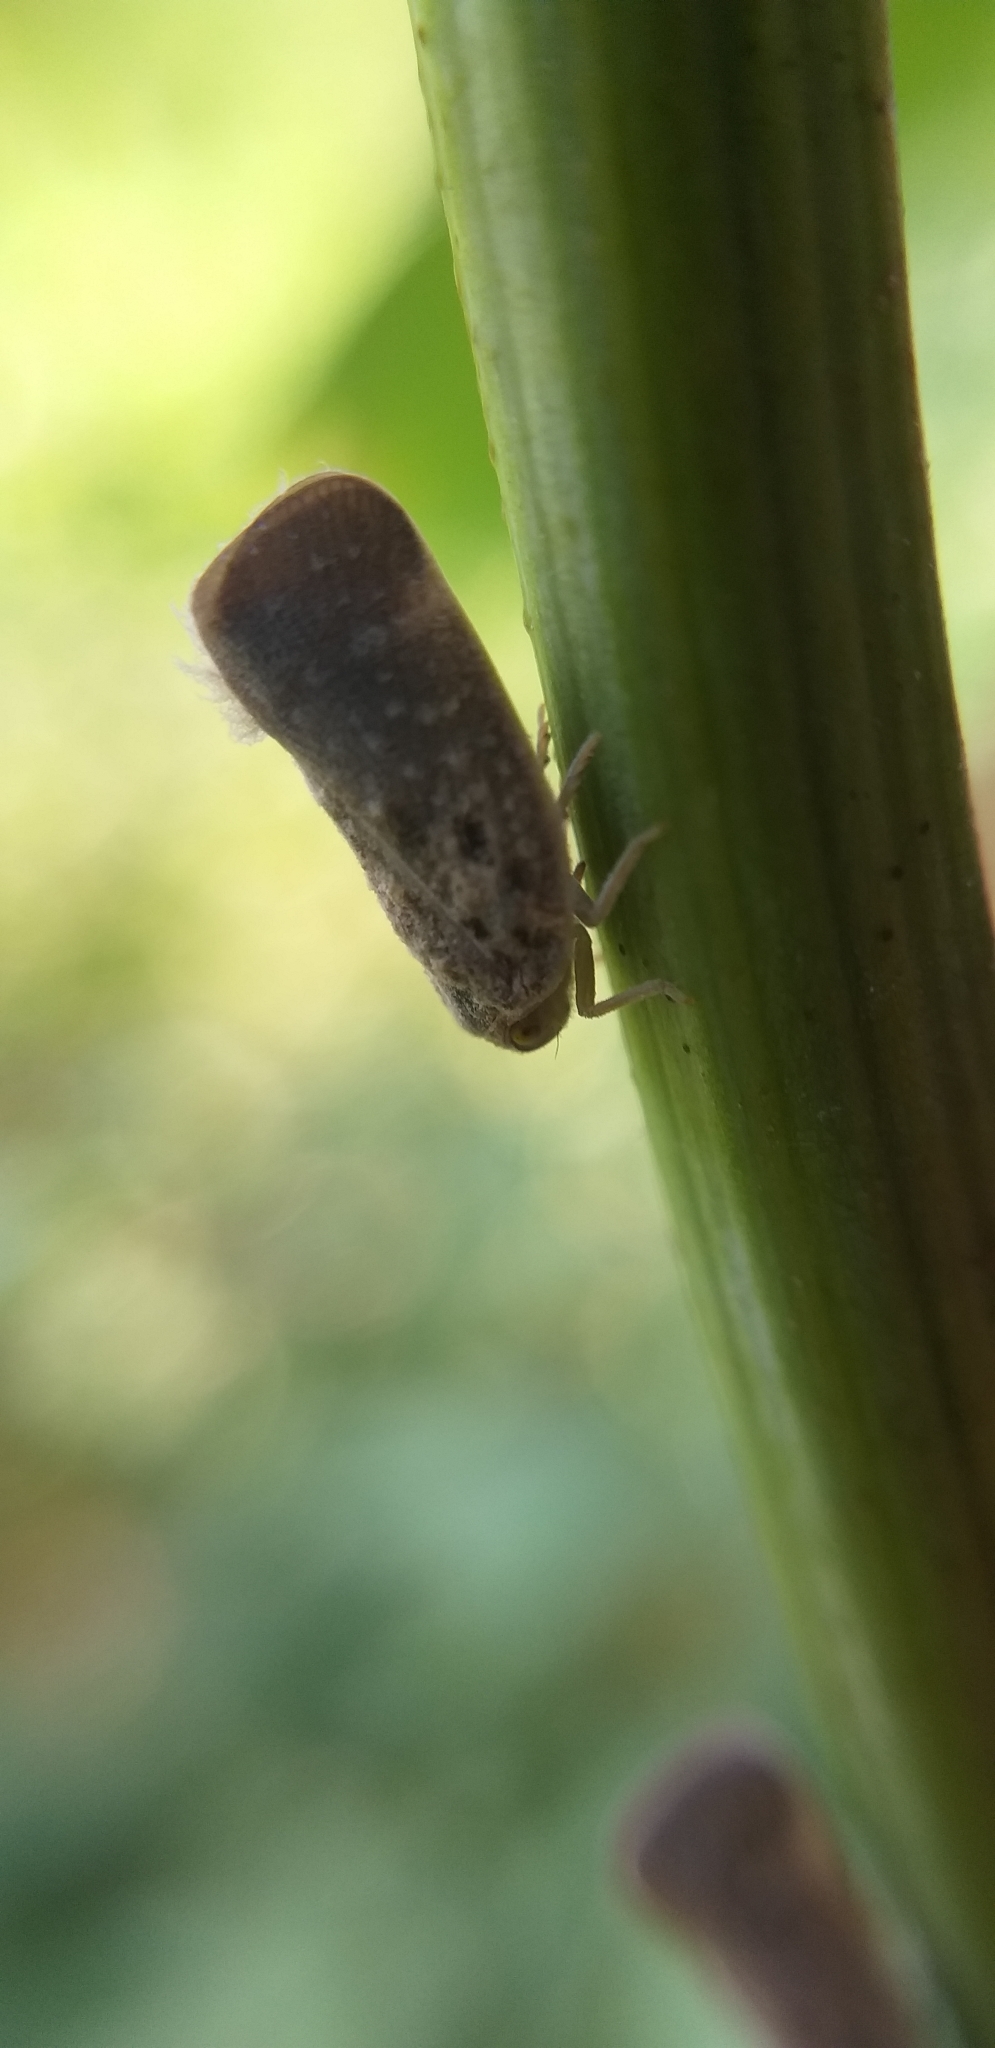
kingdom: Animalia
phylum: Arthropoda
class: Insecta
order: Hemiptera
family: Flatidae
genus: Metcalfa
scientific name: Metcalfa pruinosa
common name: Citrus flatid planthopper
